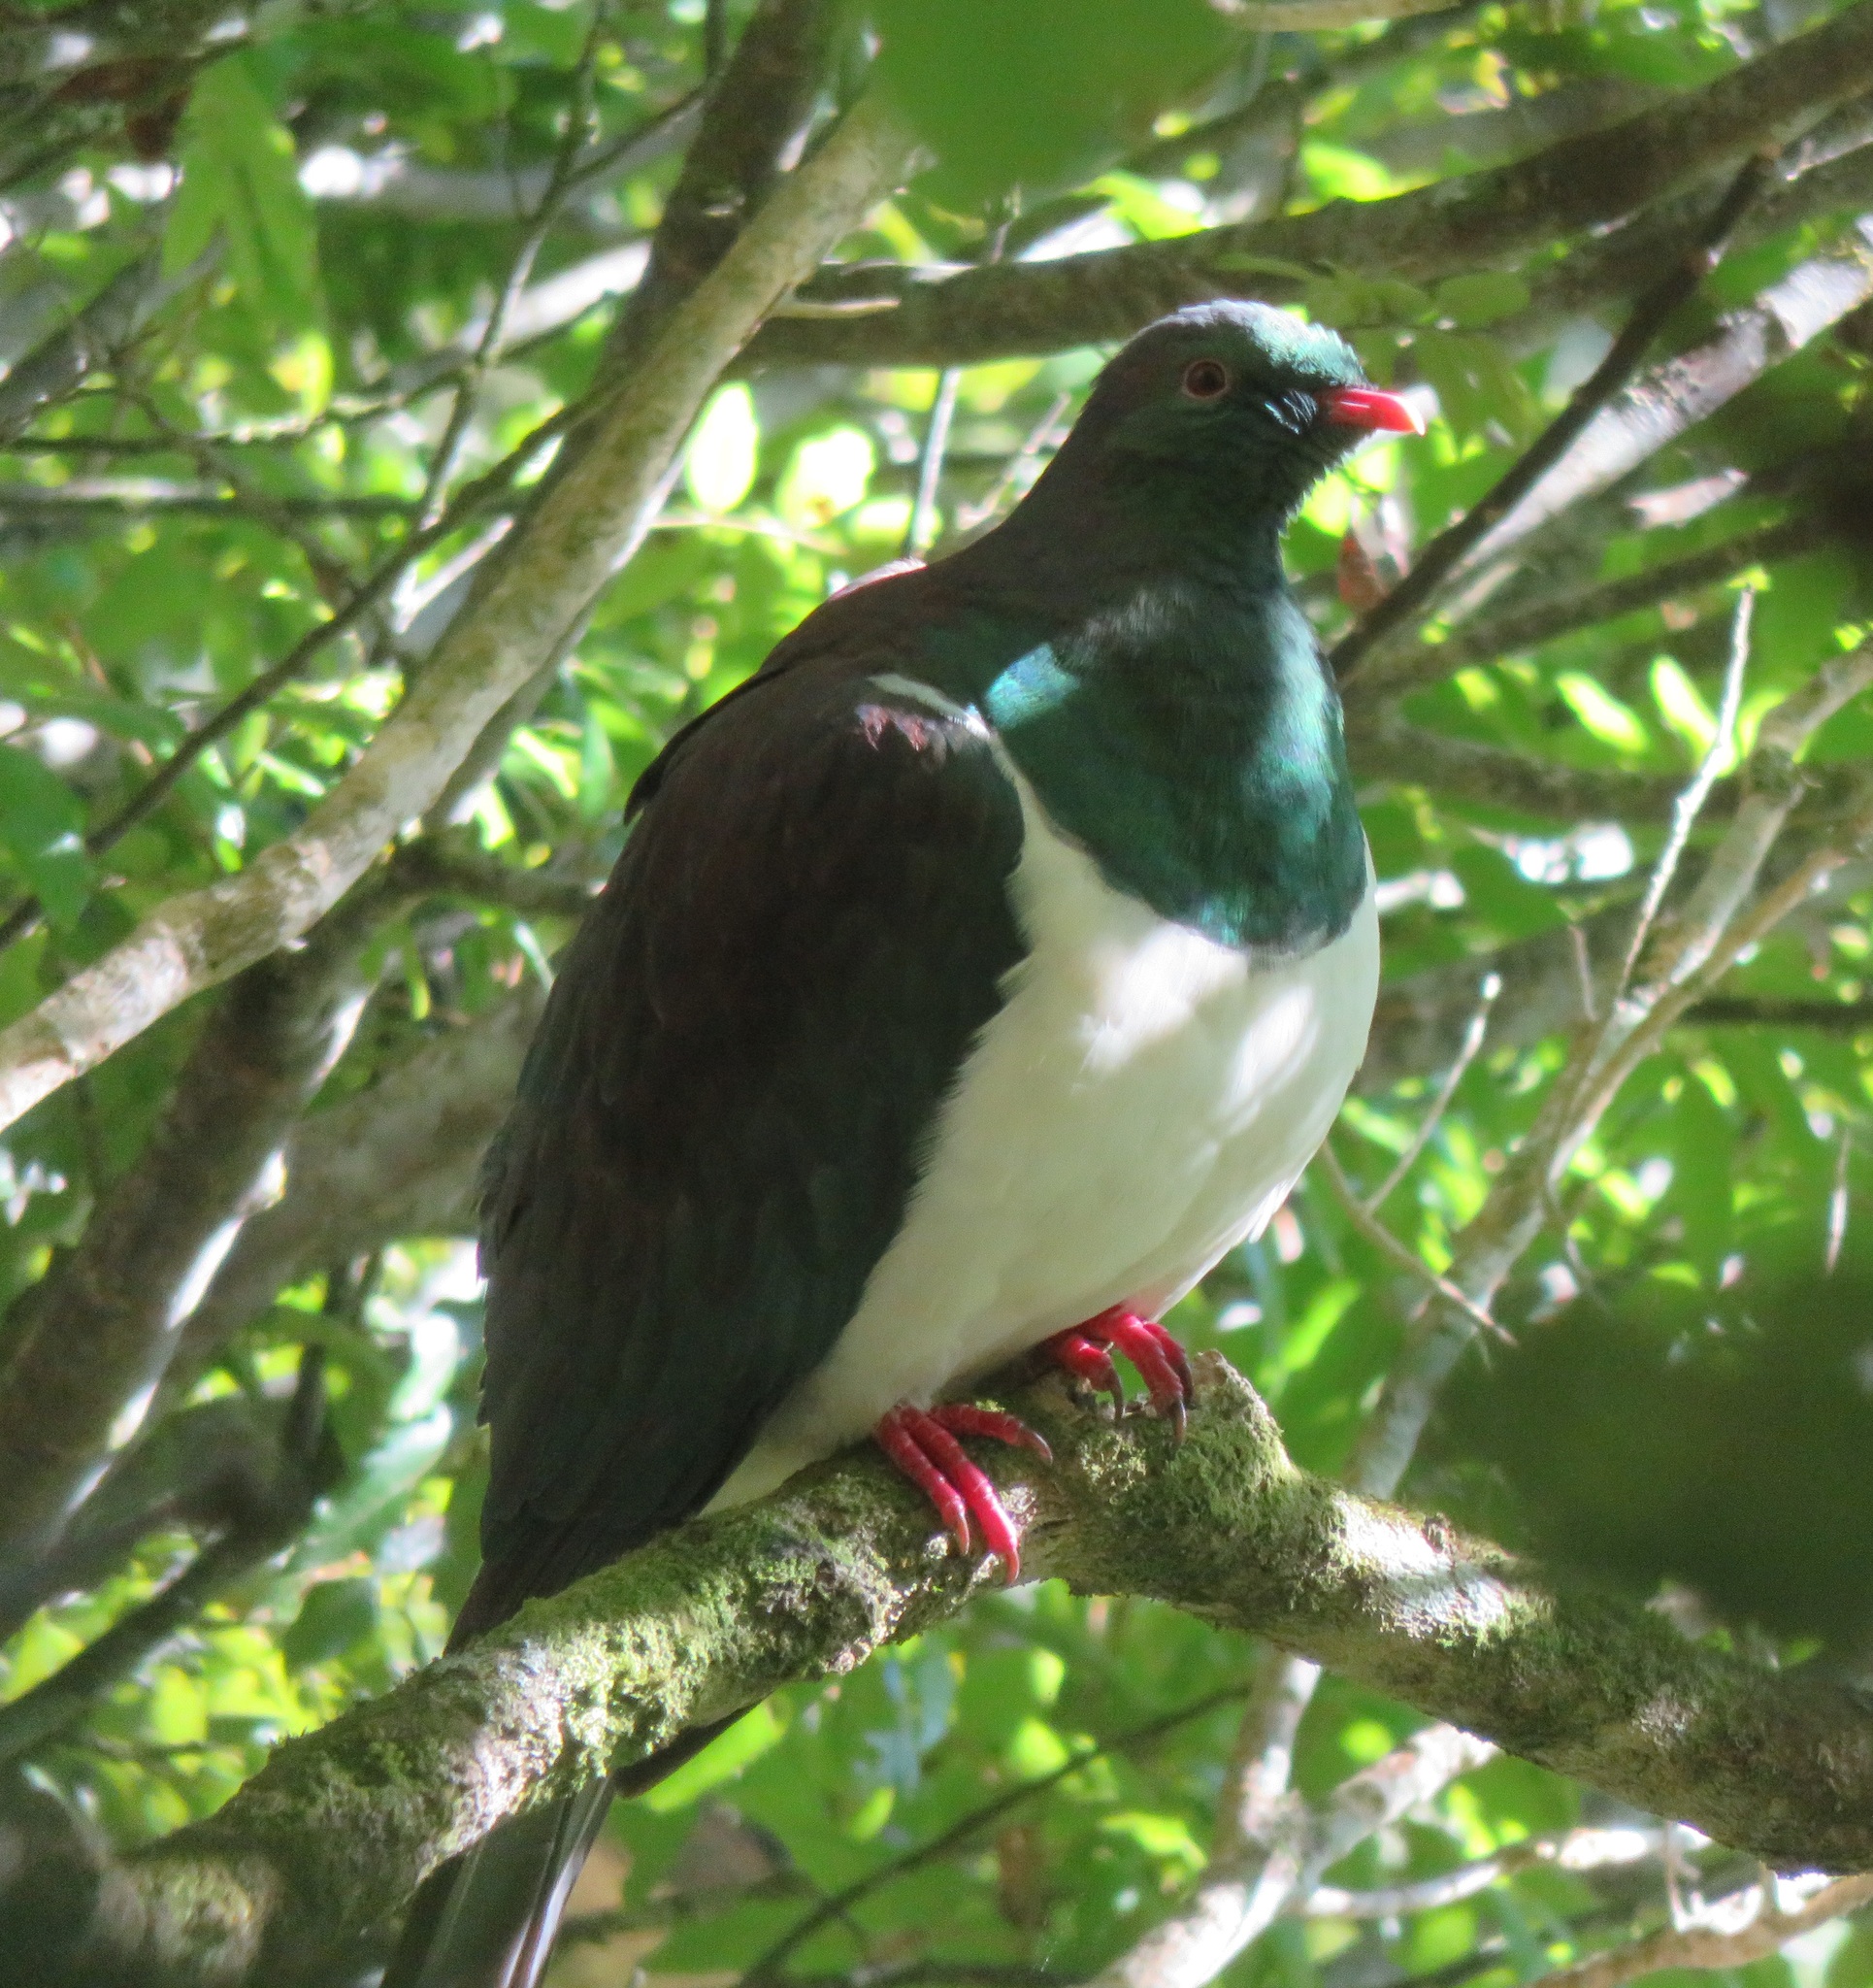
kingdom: Animalia
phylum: Chordata
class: Aves
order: Columbiformes
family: Columbidae
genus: Hemiphaga
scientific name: Hemiphaga novaeseelandiae
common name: New zealand pigeon
